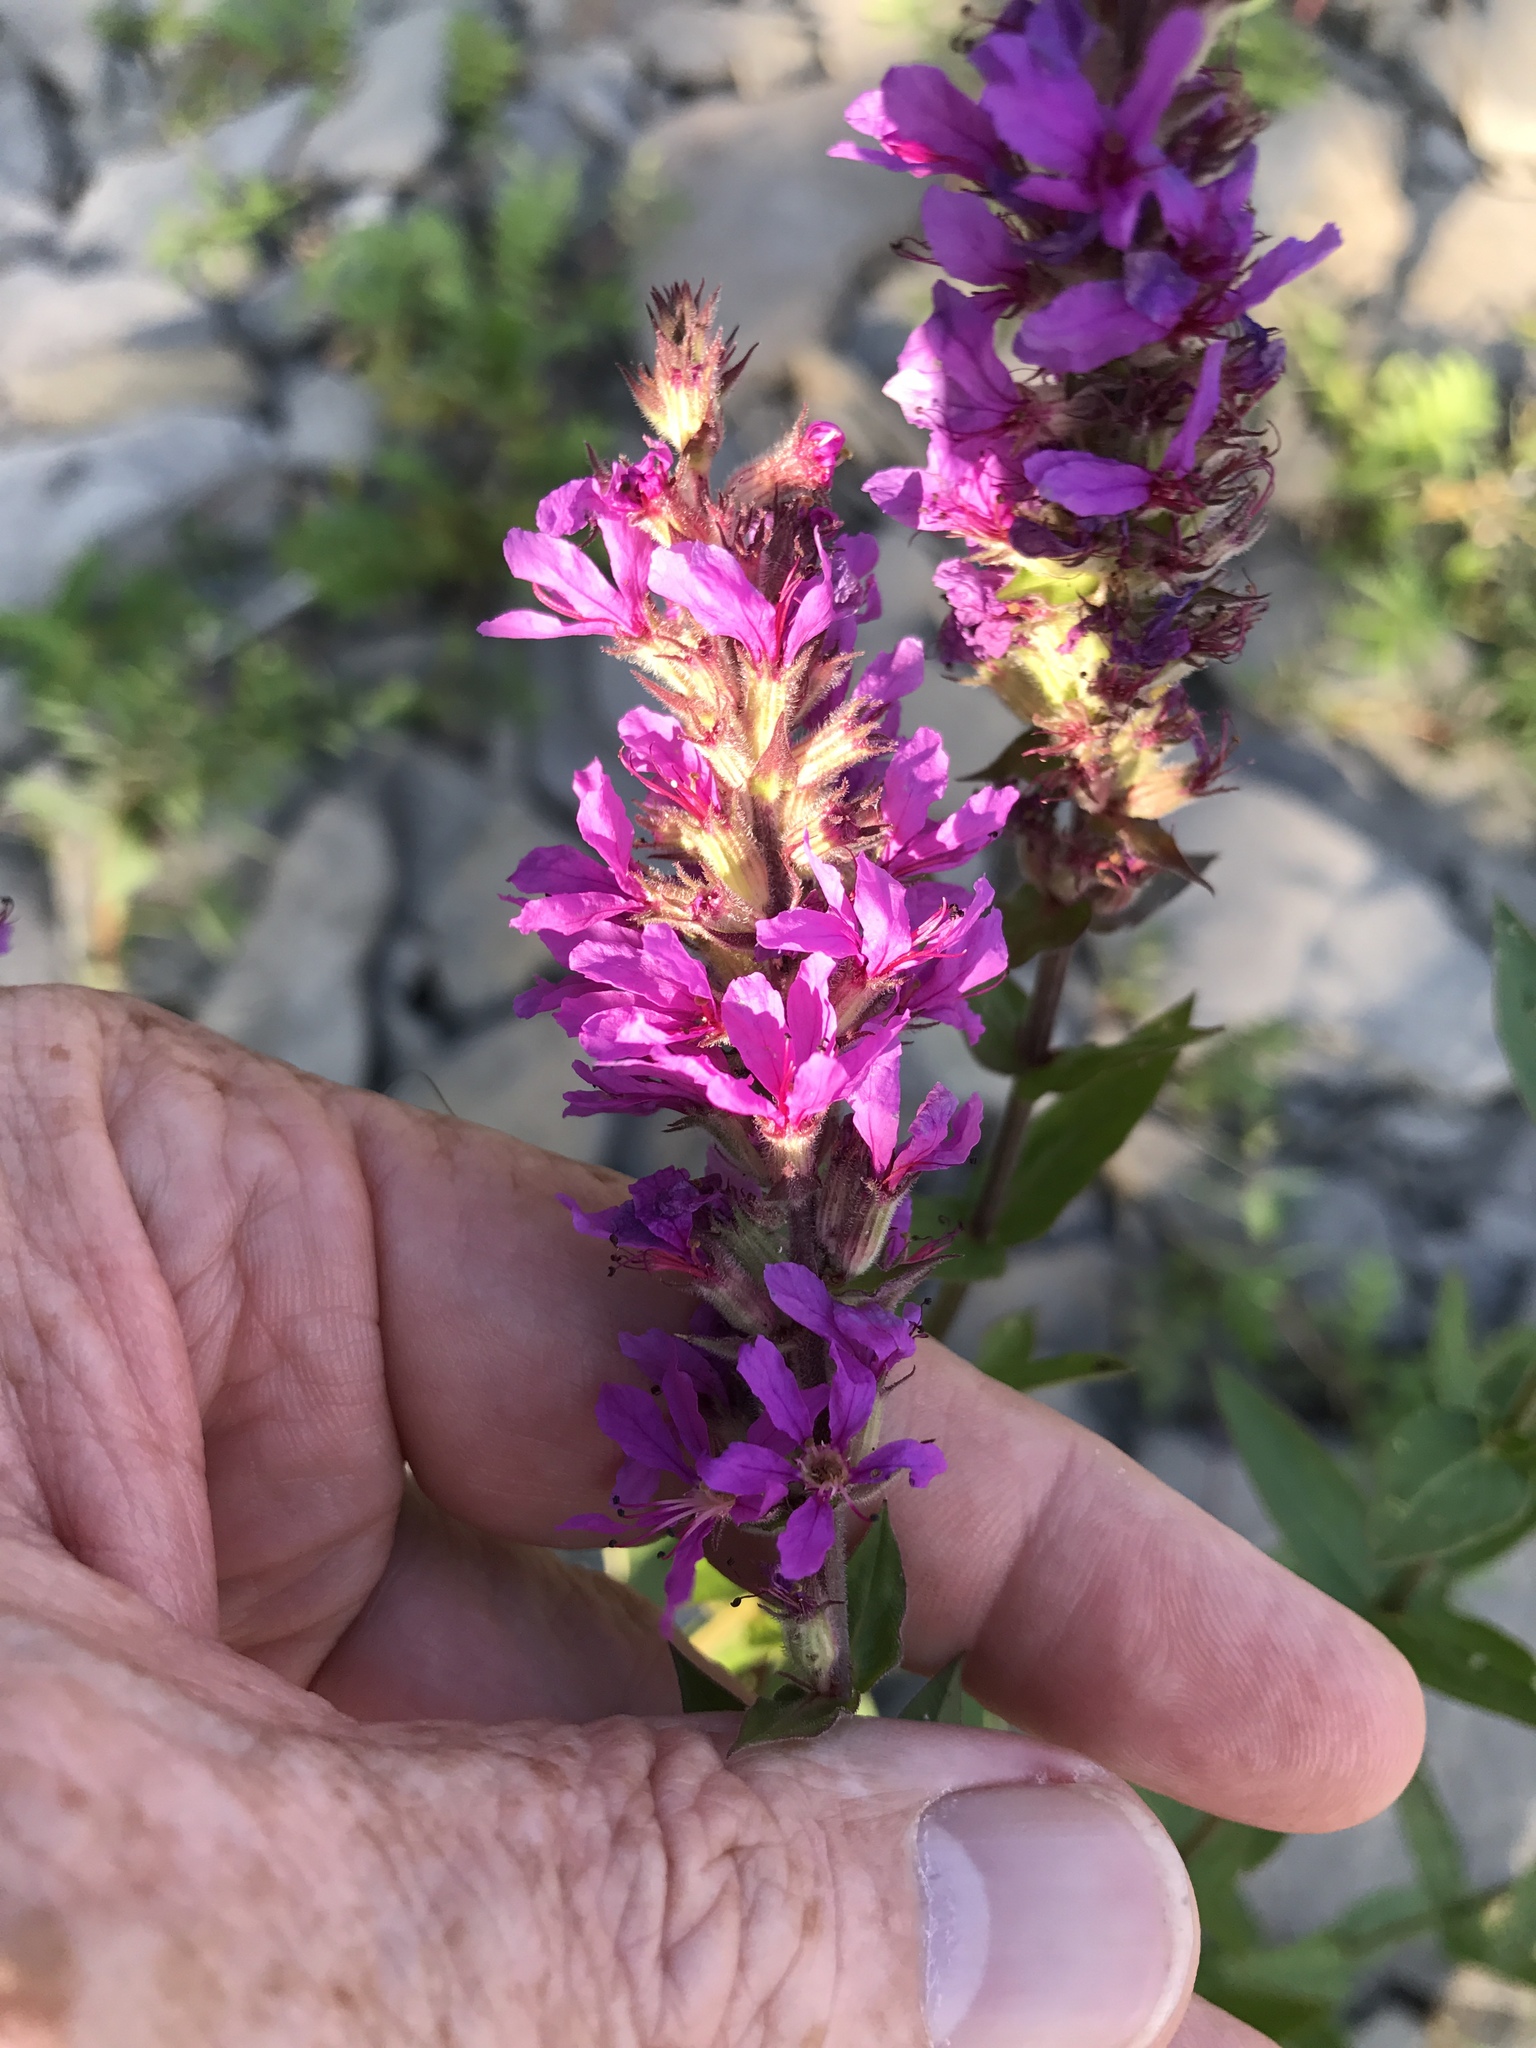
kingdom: Plantae
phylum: Tracheophyta
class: Magnoliopsida
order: Myrtales
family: Lythraceae
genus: Lythrum
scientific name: Lythrum salicaria
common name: Purple loosestrife
